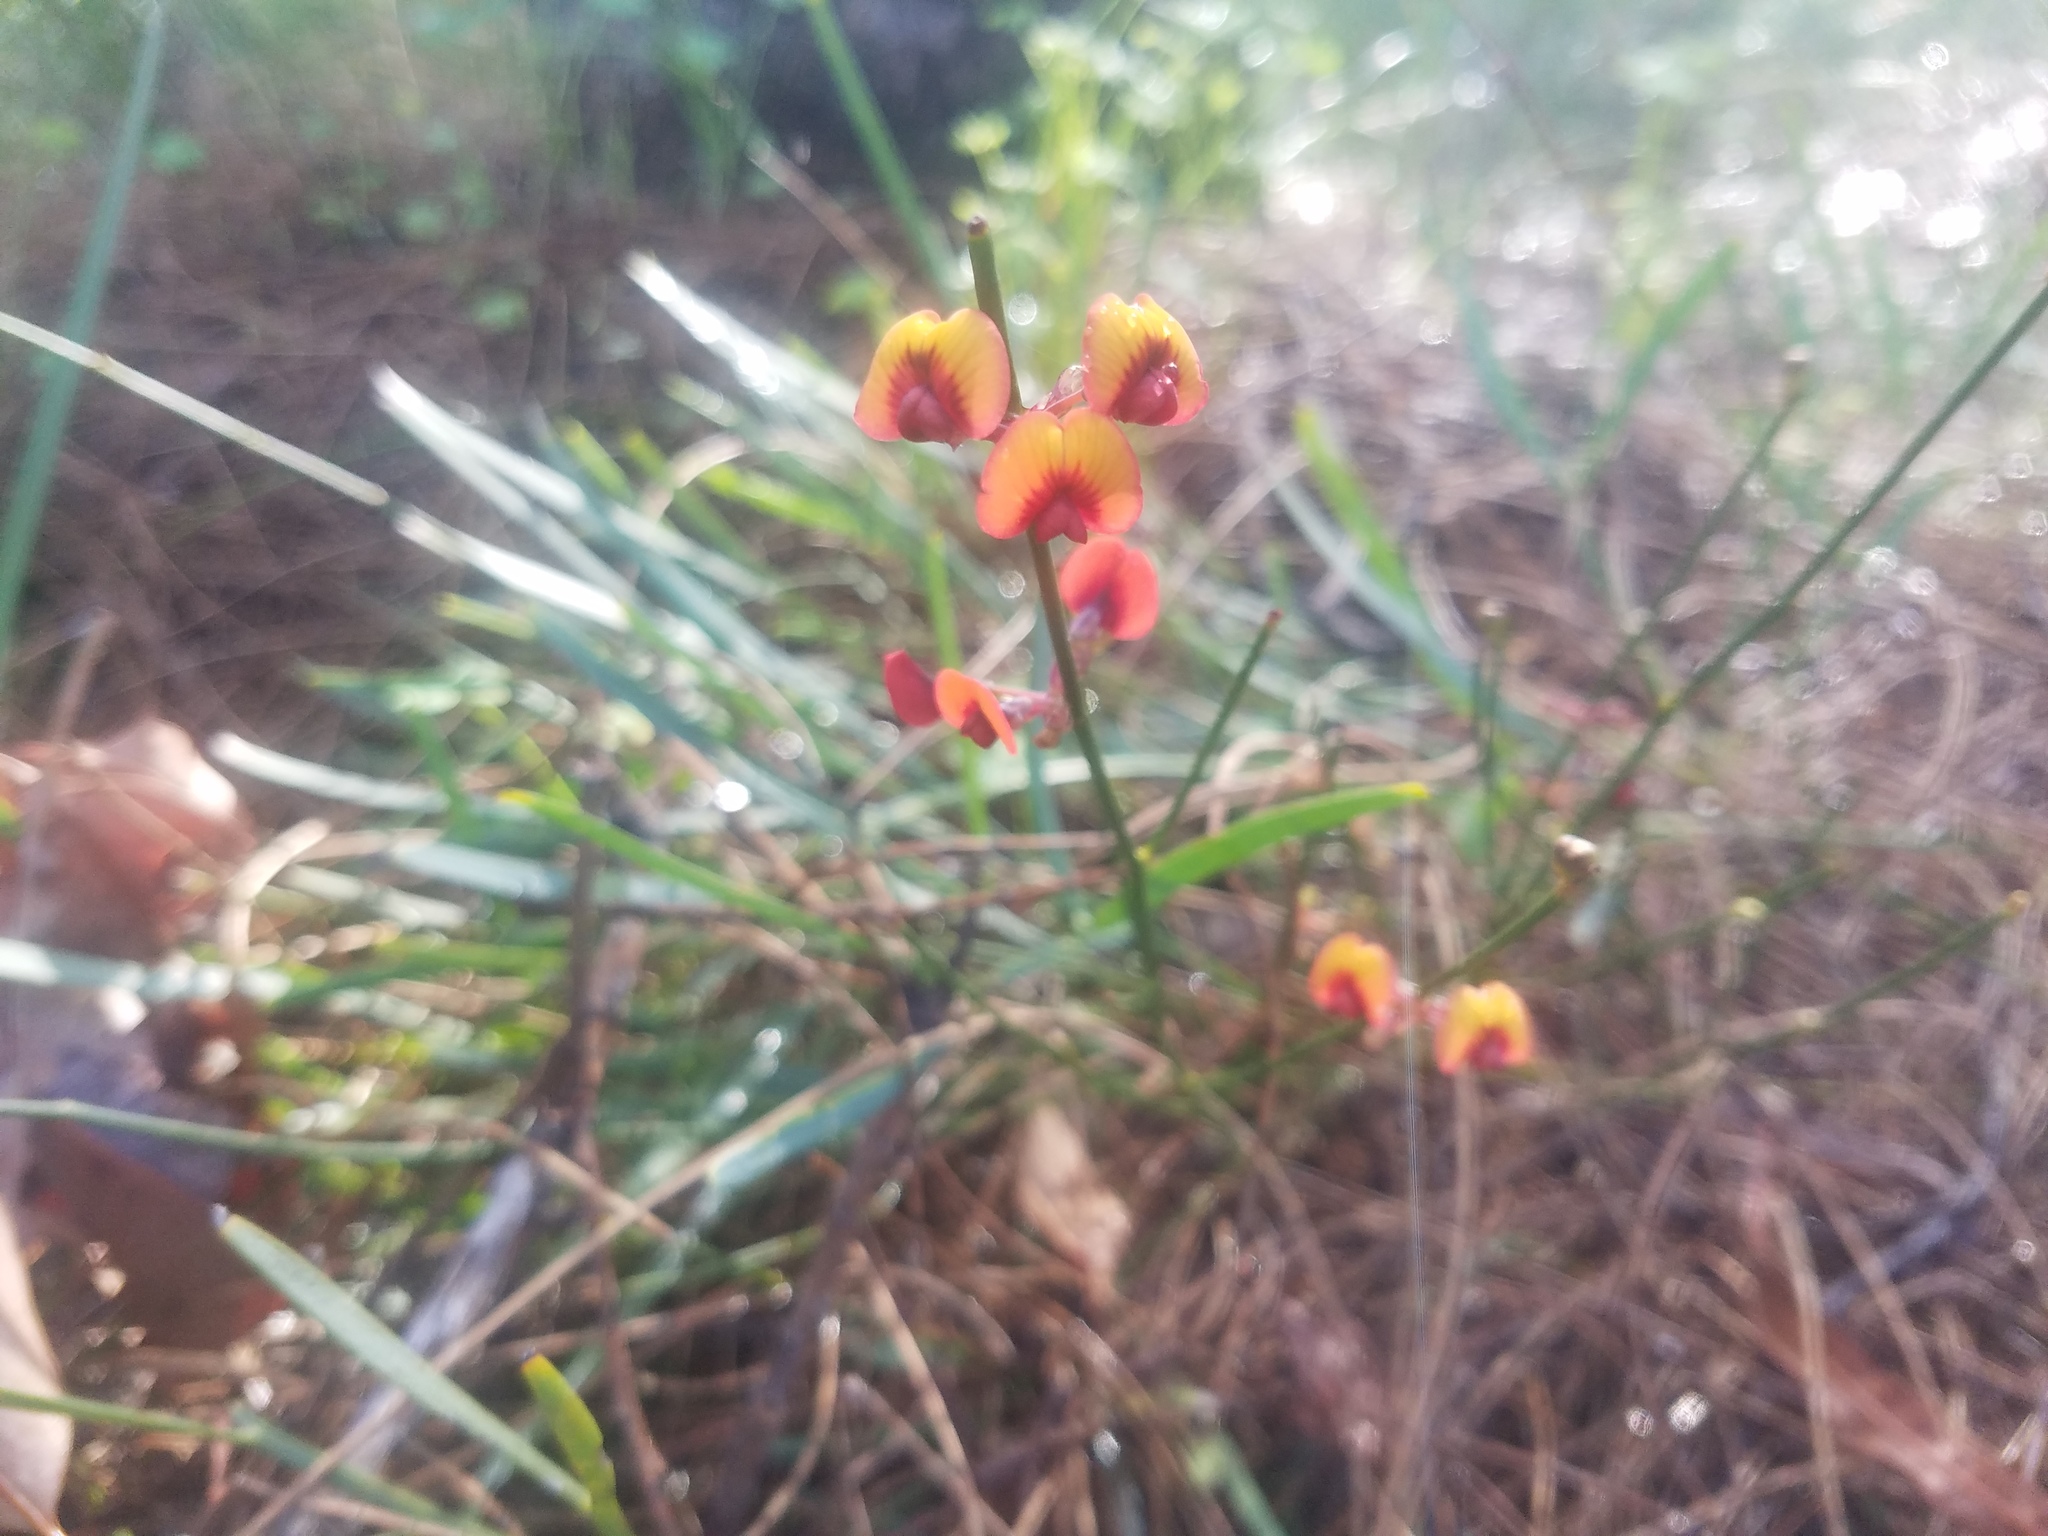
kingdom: Plantae
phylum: Tracheophyta
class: Magnoliopsida
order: Fabales
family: Fabaceae
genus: Daviesia
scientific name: Daviesia triflora
